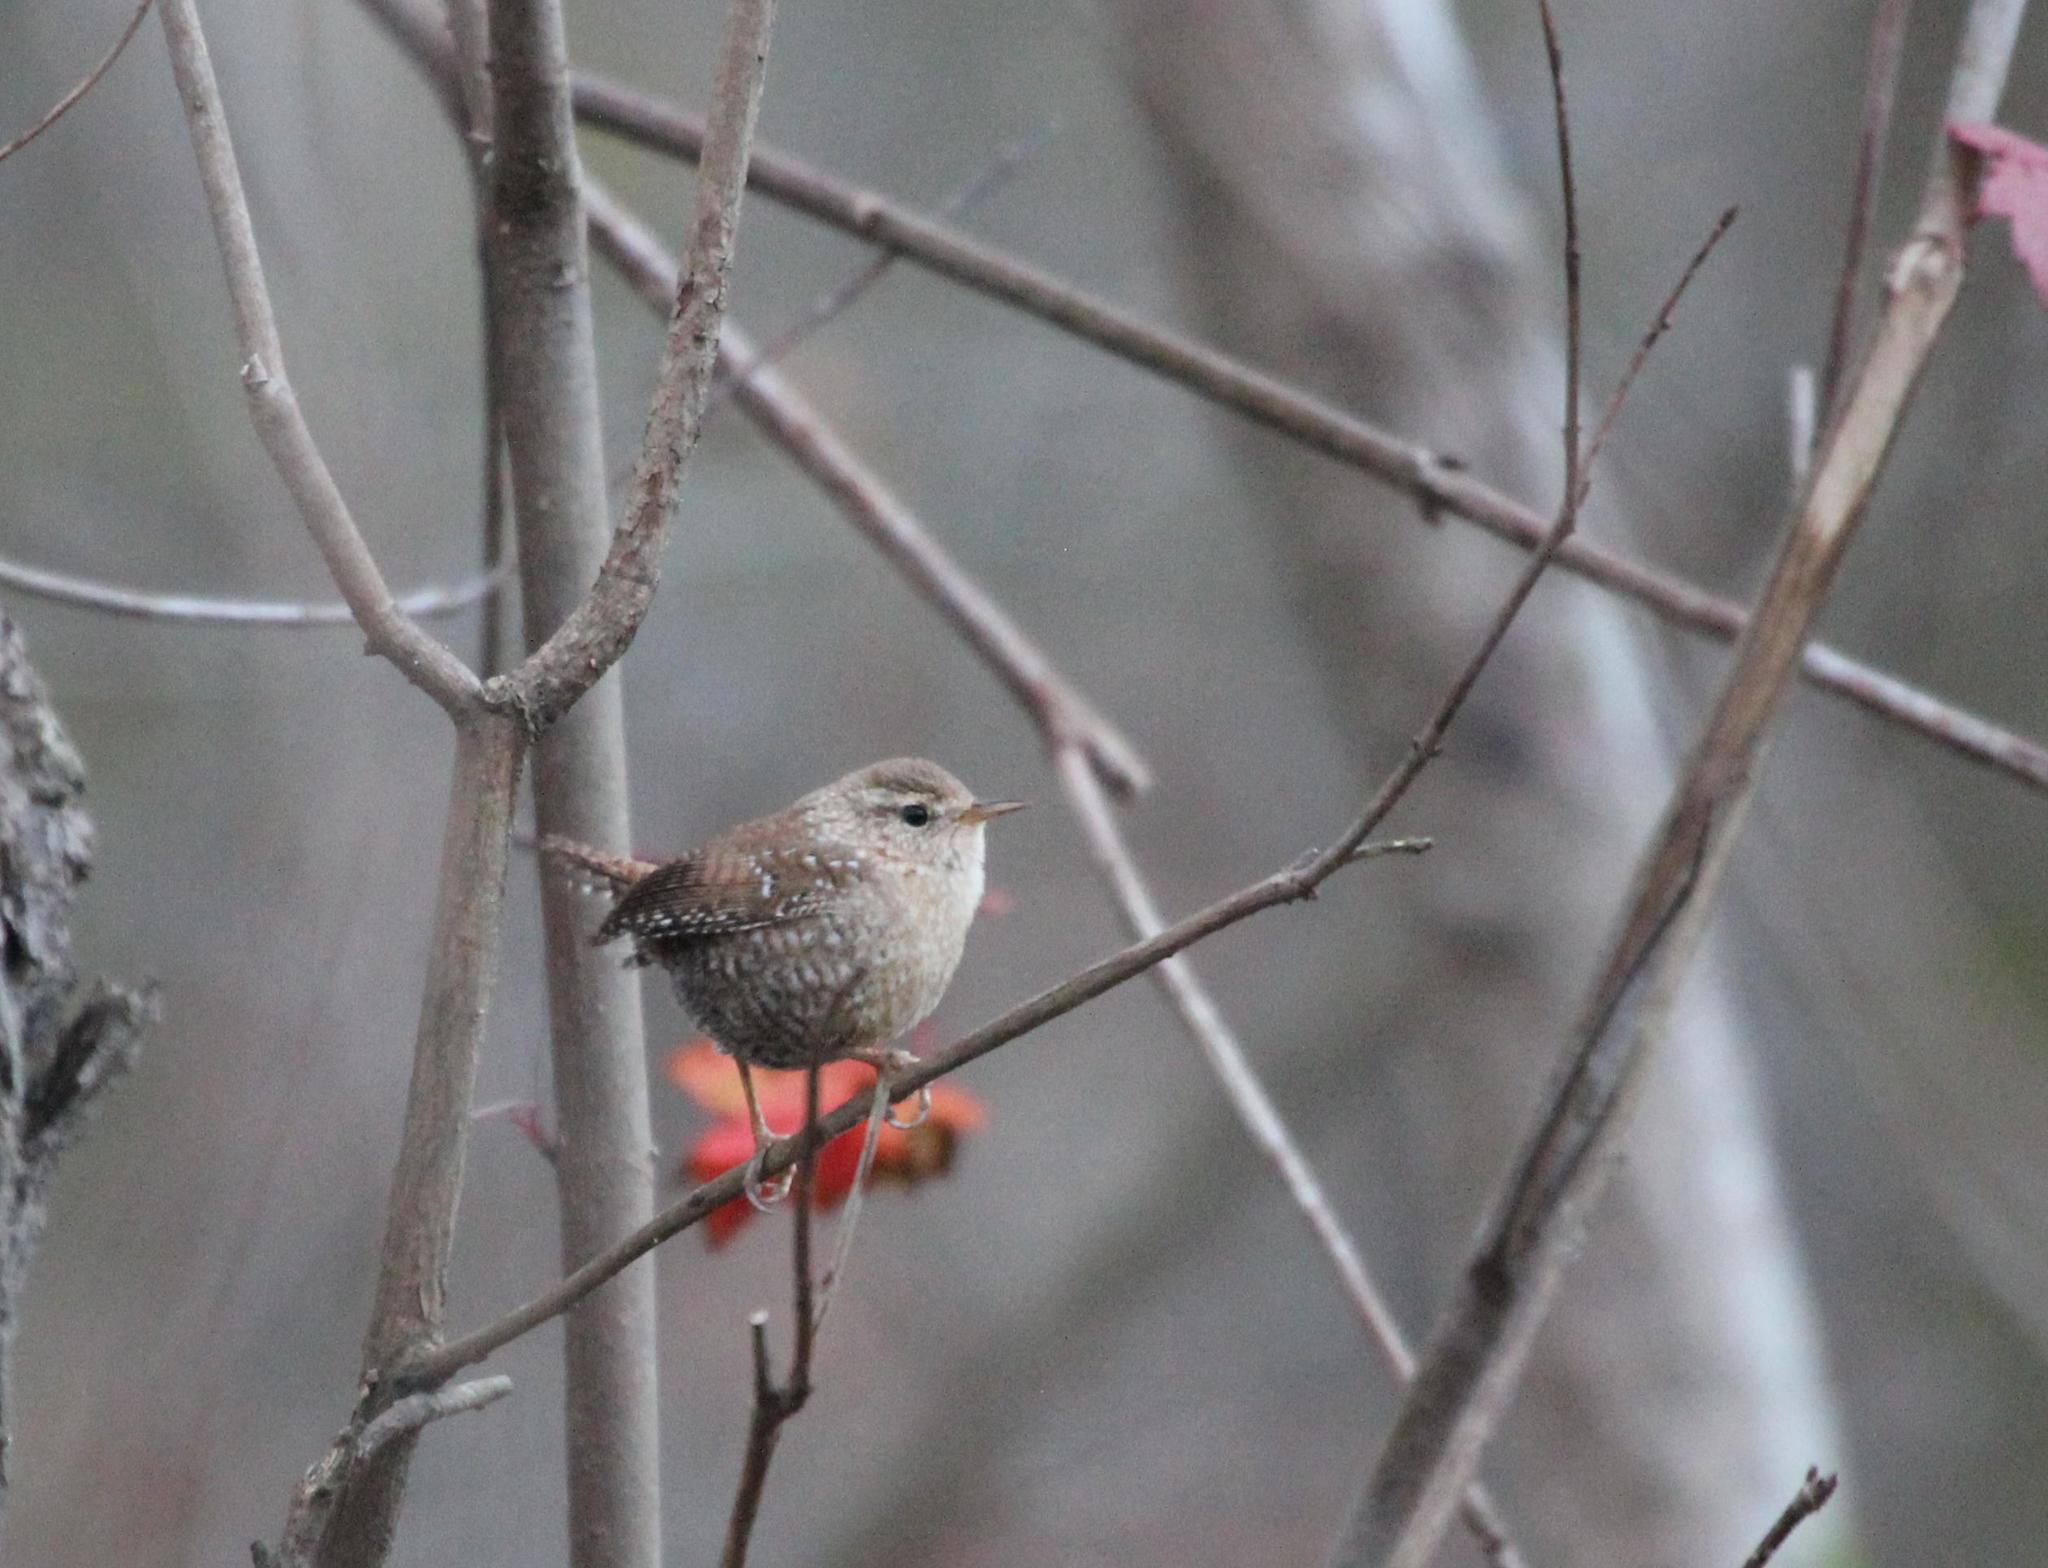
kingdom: Animalia
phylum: Chordata
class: Aves
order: Passeriformes
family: Troglodytidae
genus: Troglodytes
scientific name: Troglodytes hiemalis
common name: Winter wren
